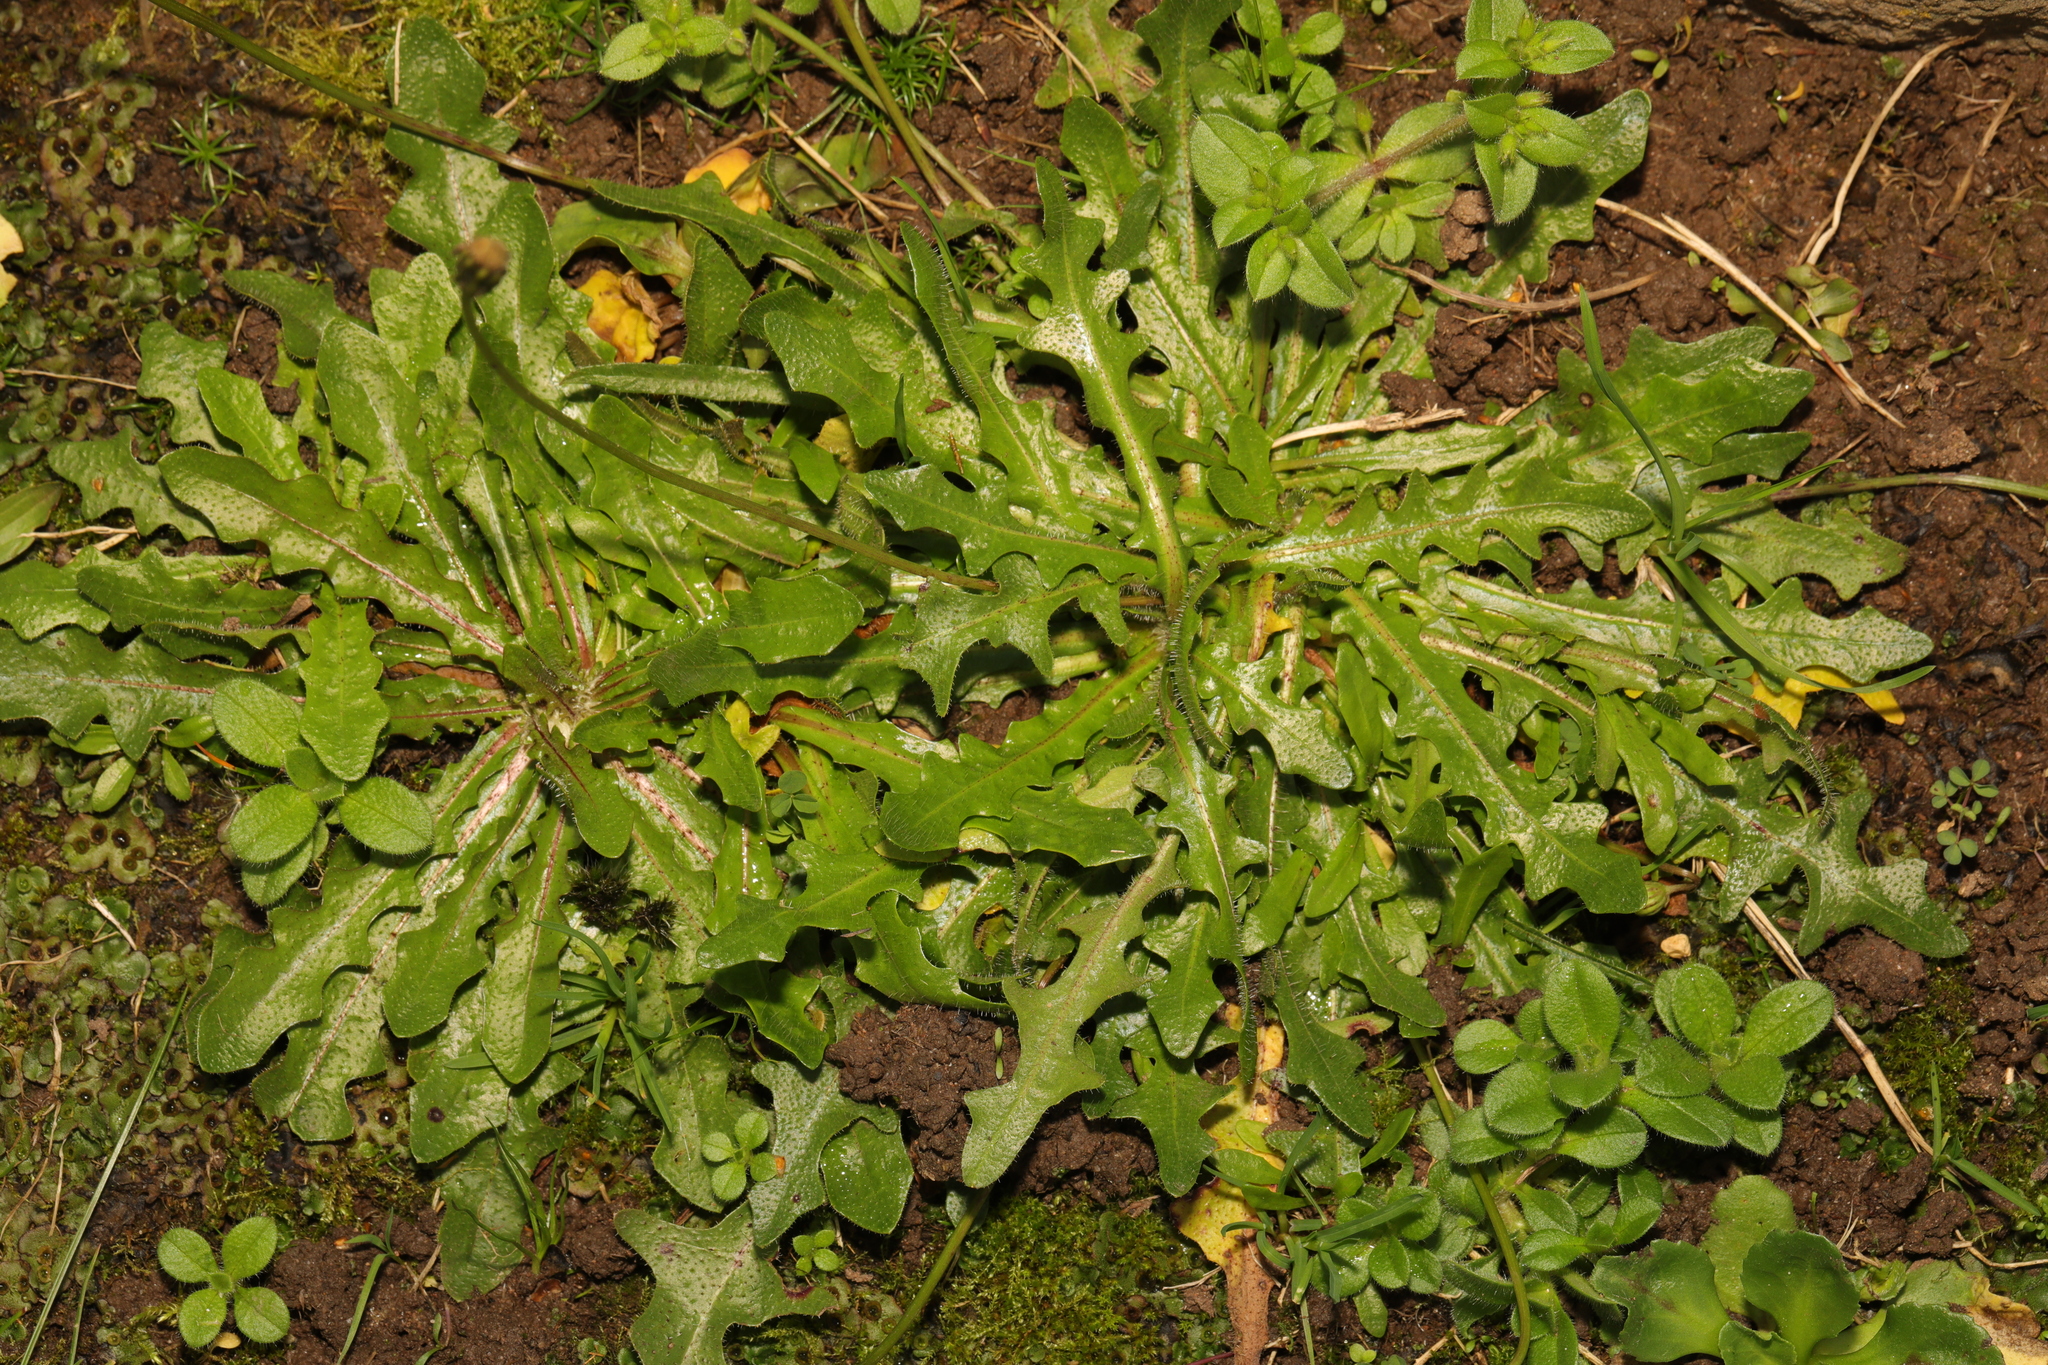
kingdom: Plantae
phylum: Tracheophyta
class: Magnoliopsida
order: Asterales
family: Asteraceae
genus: Hypochaeris
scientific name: Hypochaeris radicata
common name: Flatweed
